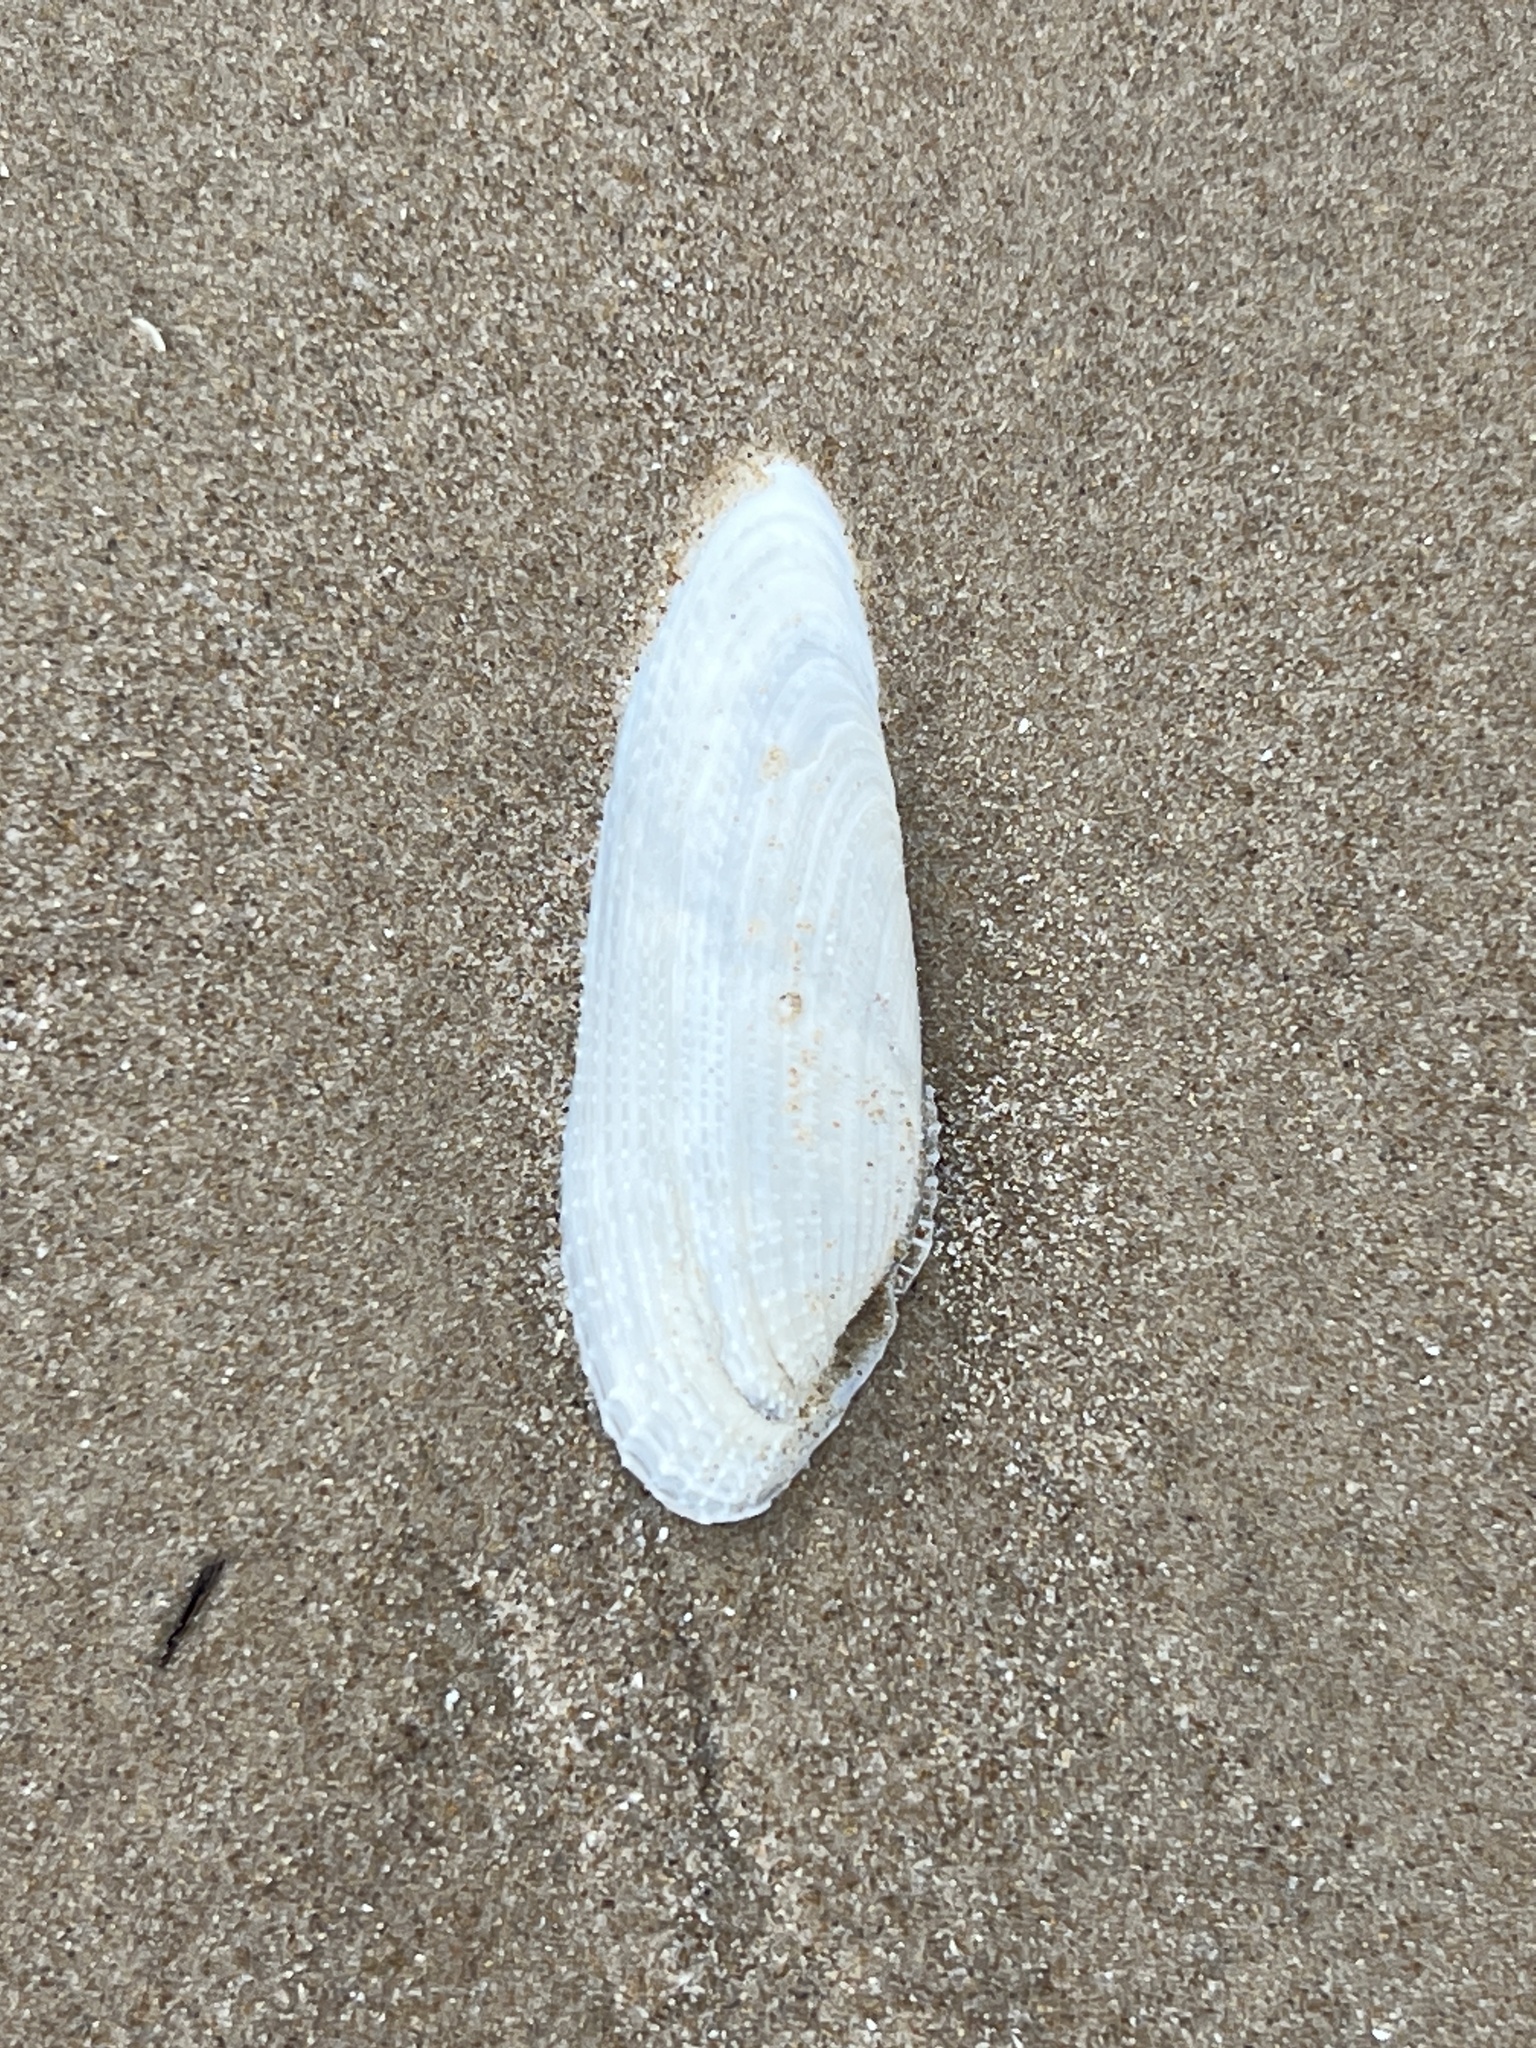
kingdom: Animalia
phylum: Mollusca
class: Bivalvia
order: Myida
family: Pholadidae
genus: Pholas
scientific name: Pholas campechiensis
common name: Campeche angel wing
